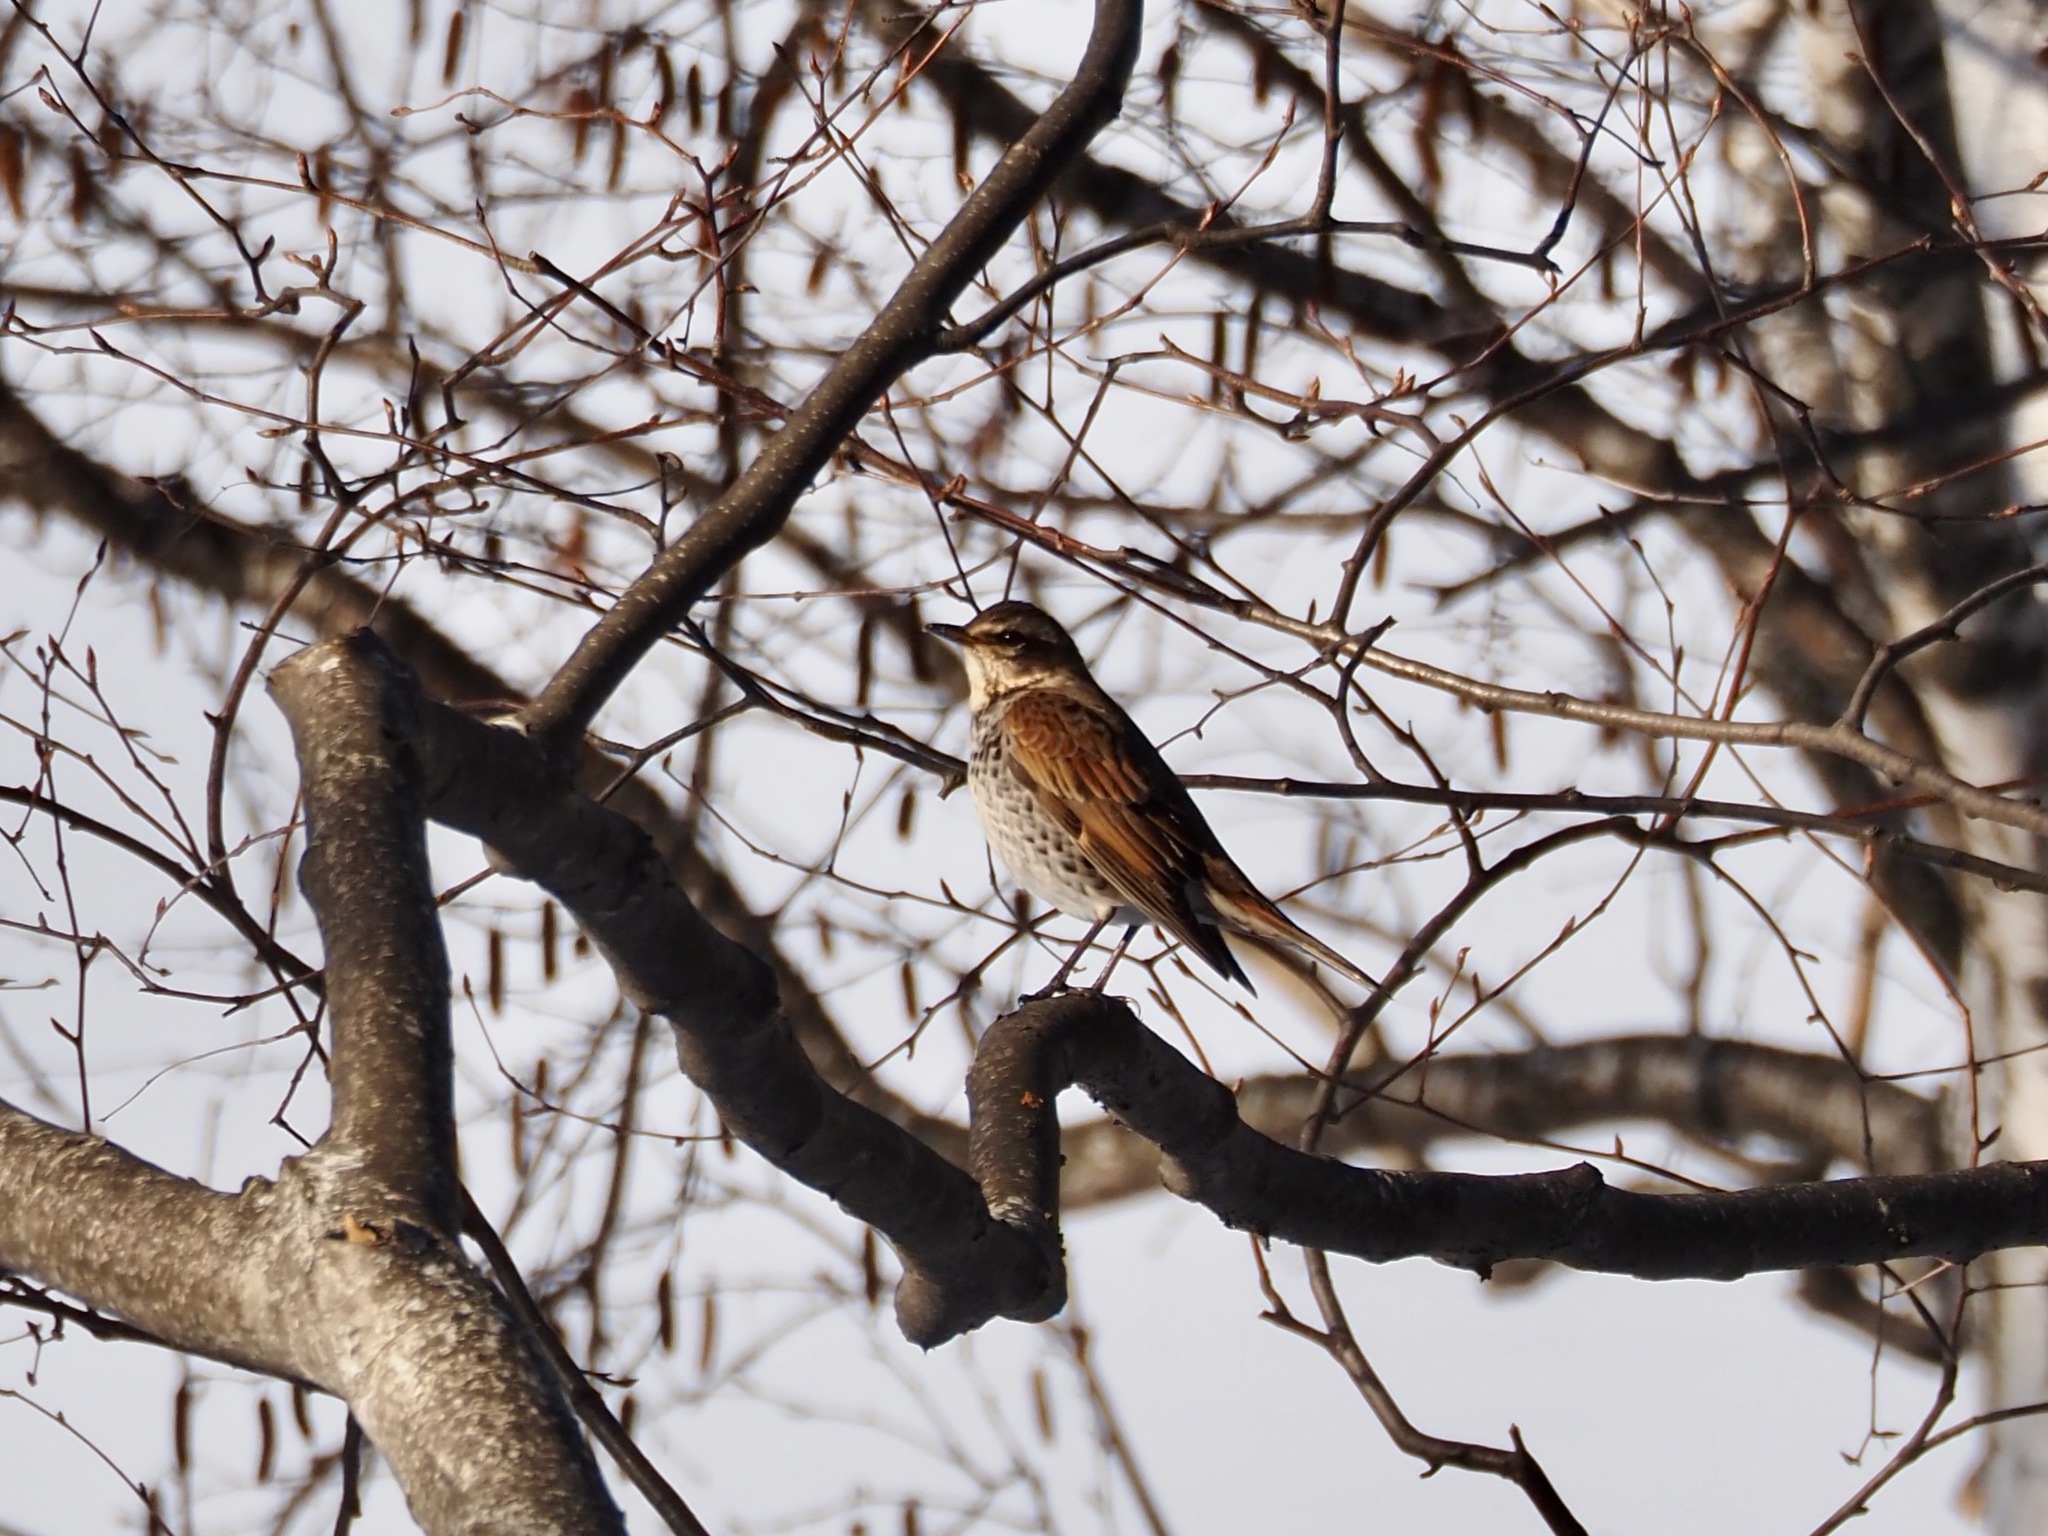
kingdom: Animalia
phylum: Chordata
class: Aves
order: Passeriformes
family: Turdidae
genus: Turdus
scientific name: Turdus eunomus
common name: Dusky thrush
